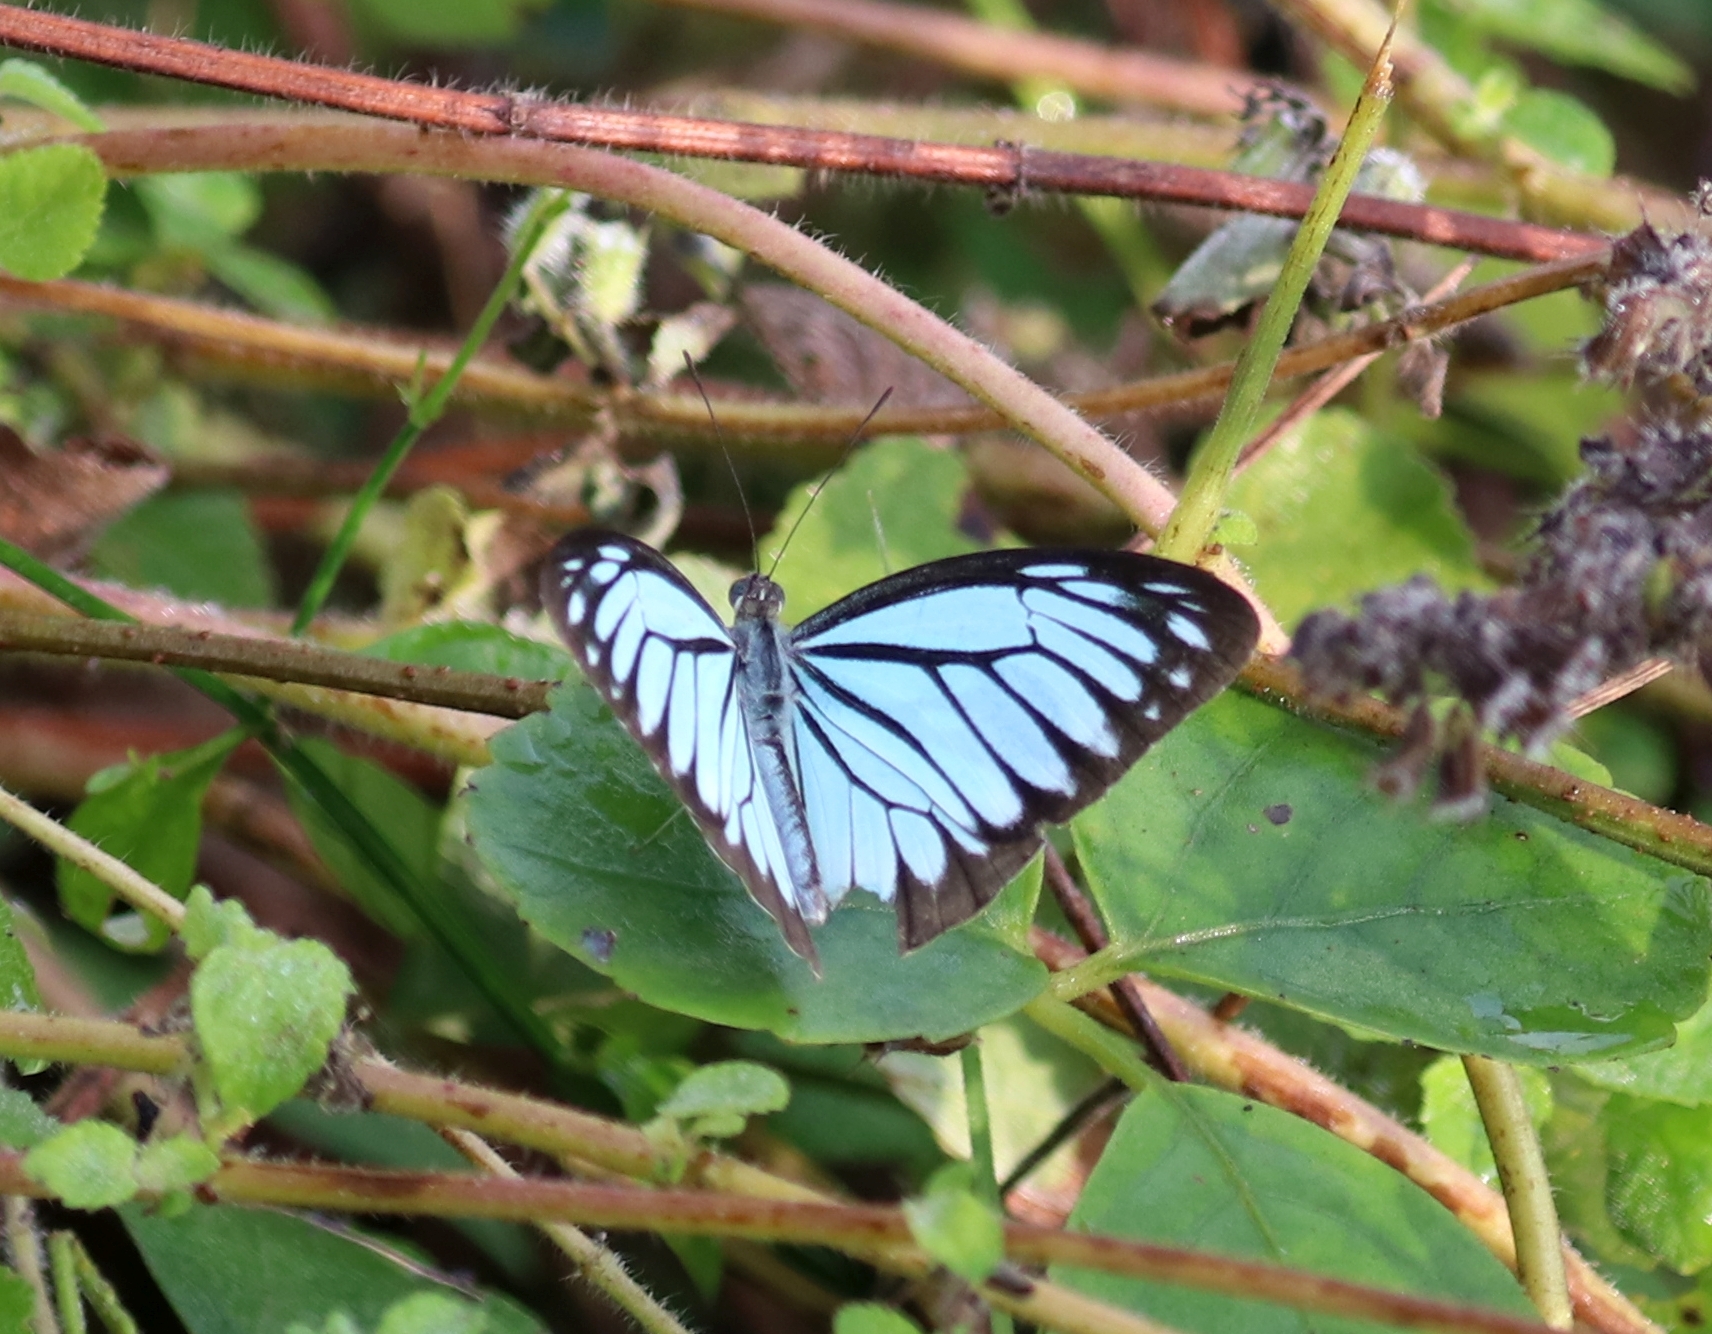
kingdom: Animalia
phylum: Arthropoda
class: Insecta
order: Lepidoptera
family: Pieridae
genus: Pareronia
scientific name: Pareronia hippia
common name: Indian wanderer
